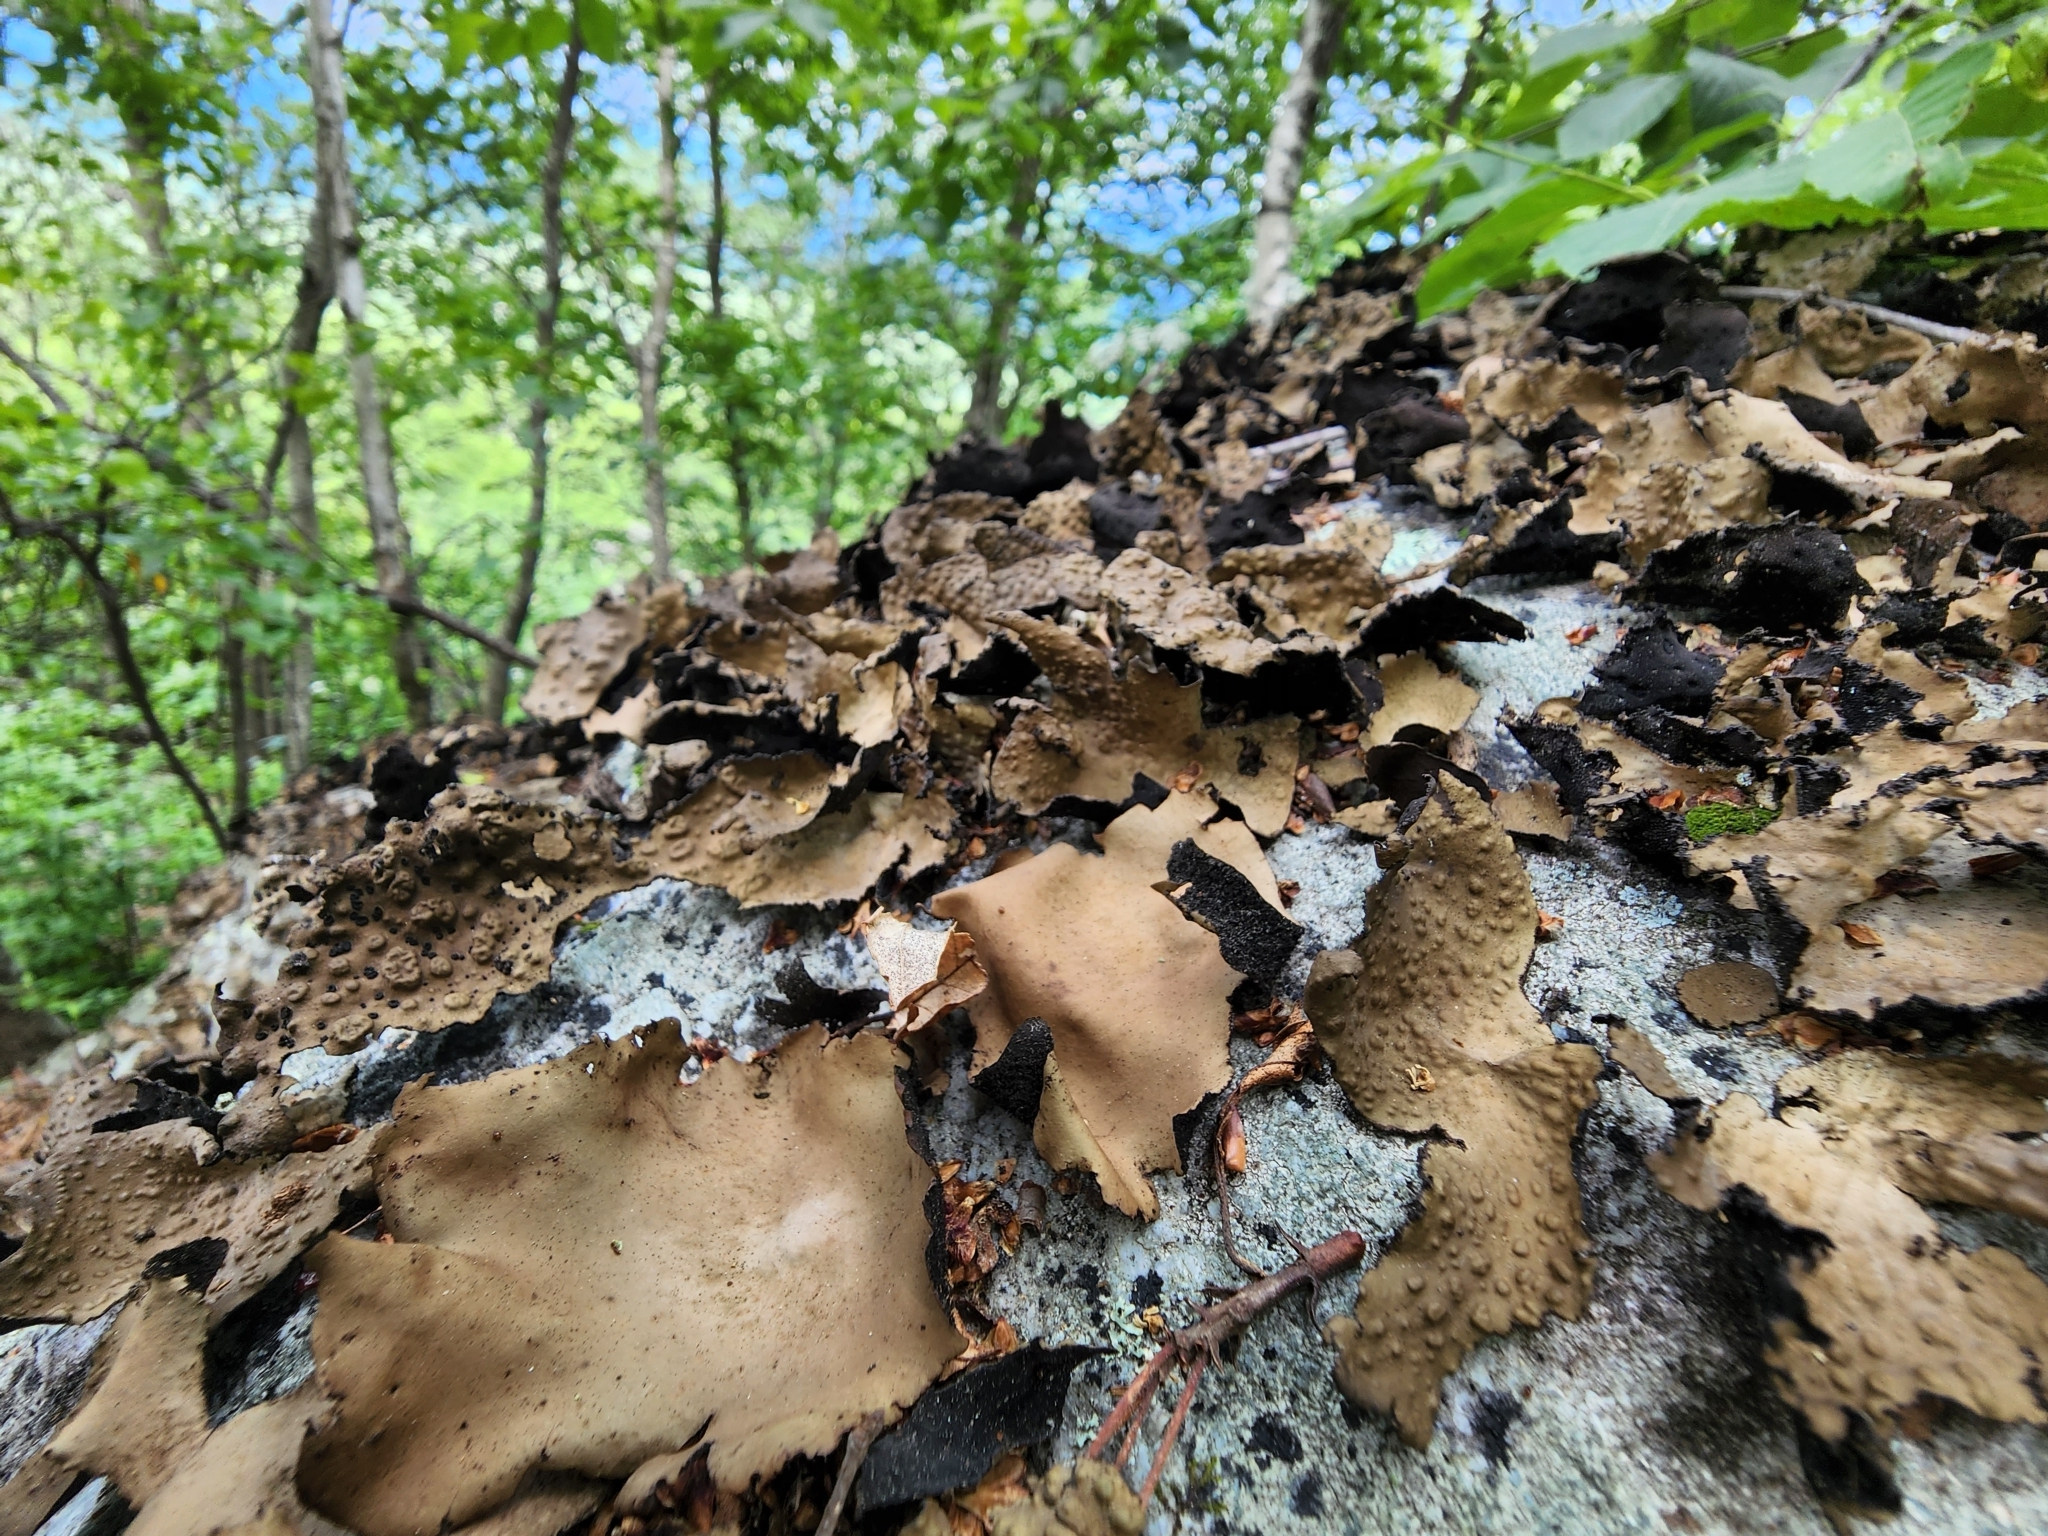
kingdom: Fungi
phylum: Ascomycota
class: Lecanoromycetes
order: Umbilicariales
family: Umbilicariaceae
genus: Umbilicaria
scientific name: Umbilicaria mammulata
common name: Smooth rock tripe
